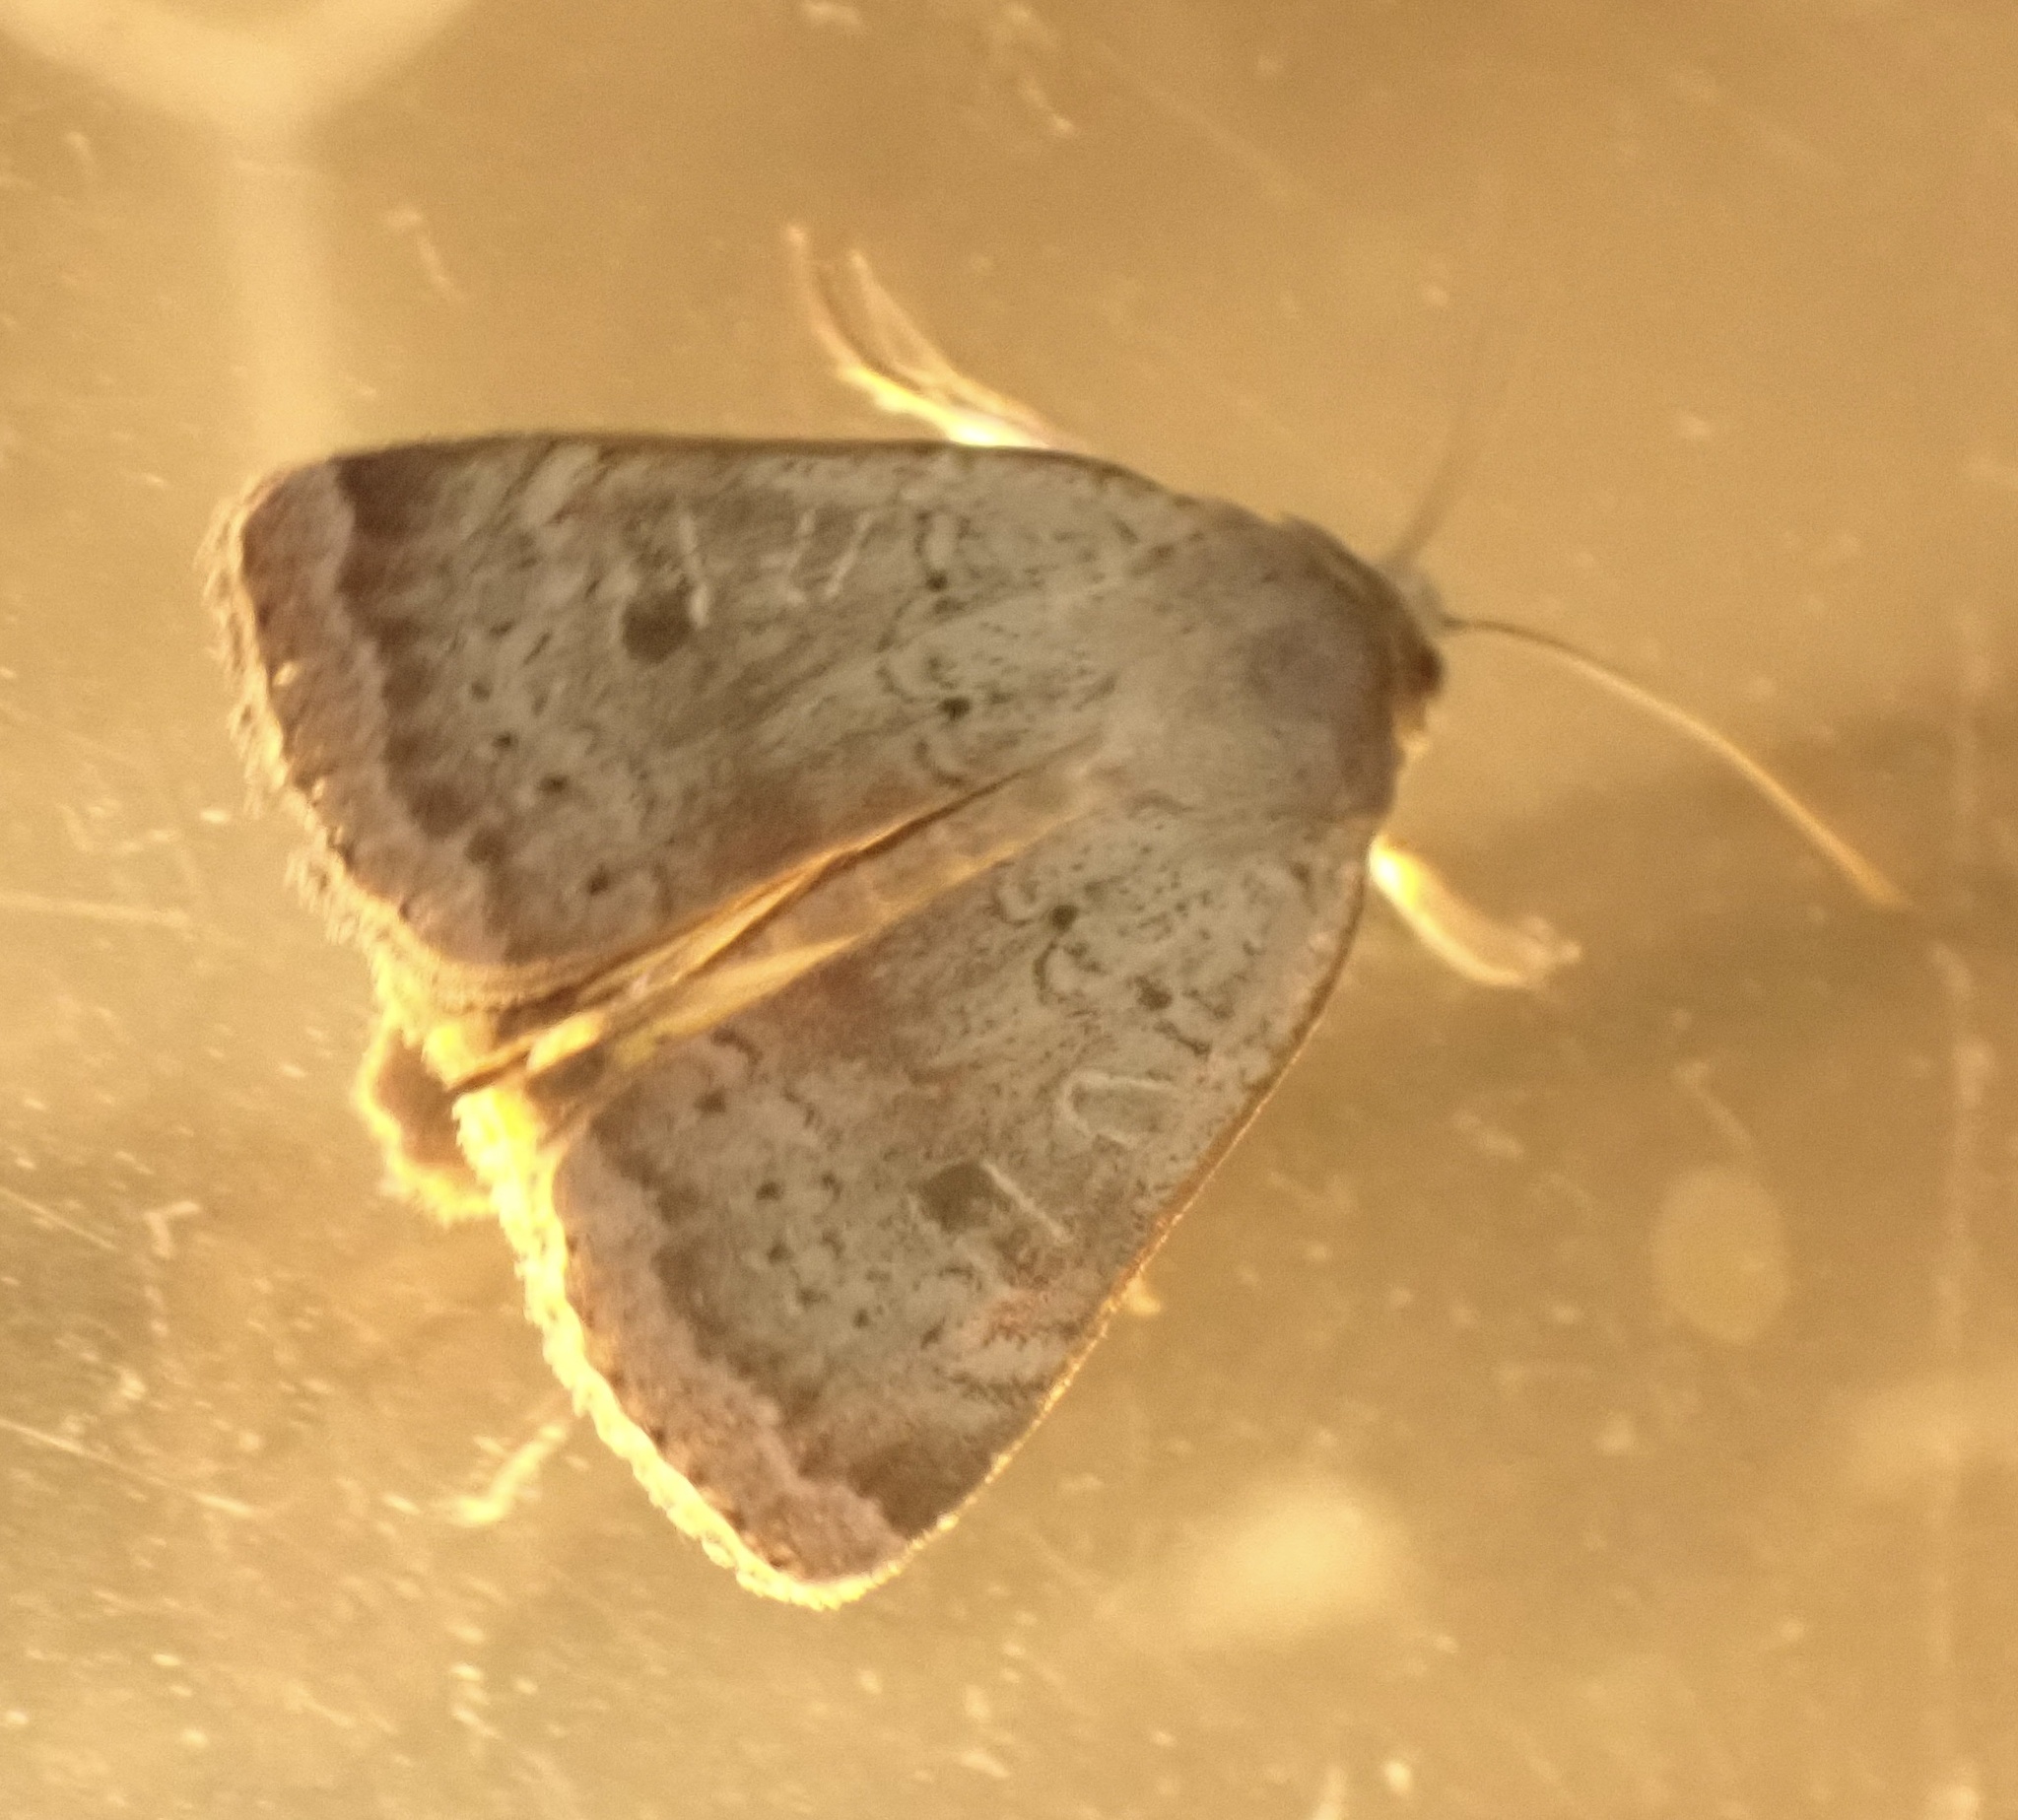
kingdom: Animalia
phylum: Arthropoda
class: Insecta
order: Lepidoptera
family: Noctuidae
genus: Noctua
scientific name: Noctua comes
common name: Lesser yellow underwing
